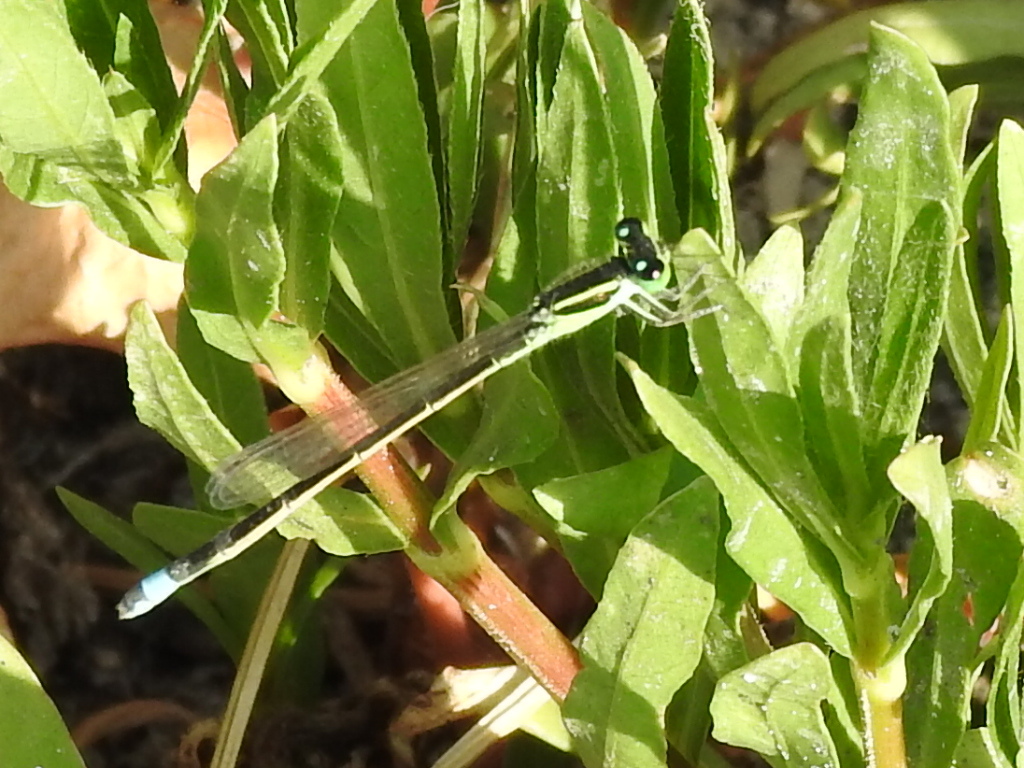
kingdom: Animalia
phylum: Arthropoda
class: Insecta
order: Odonata
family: Coenagrionidae
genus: Ischnura
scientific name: Ischnura ramburii
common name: Rambur's forktail
